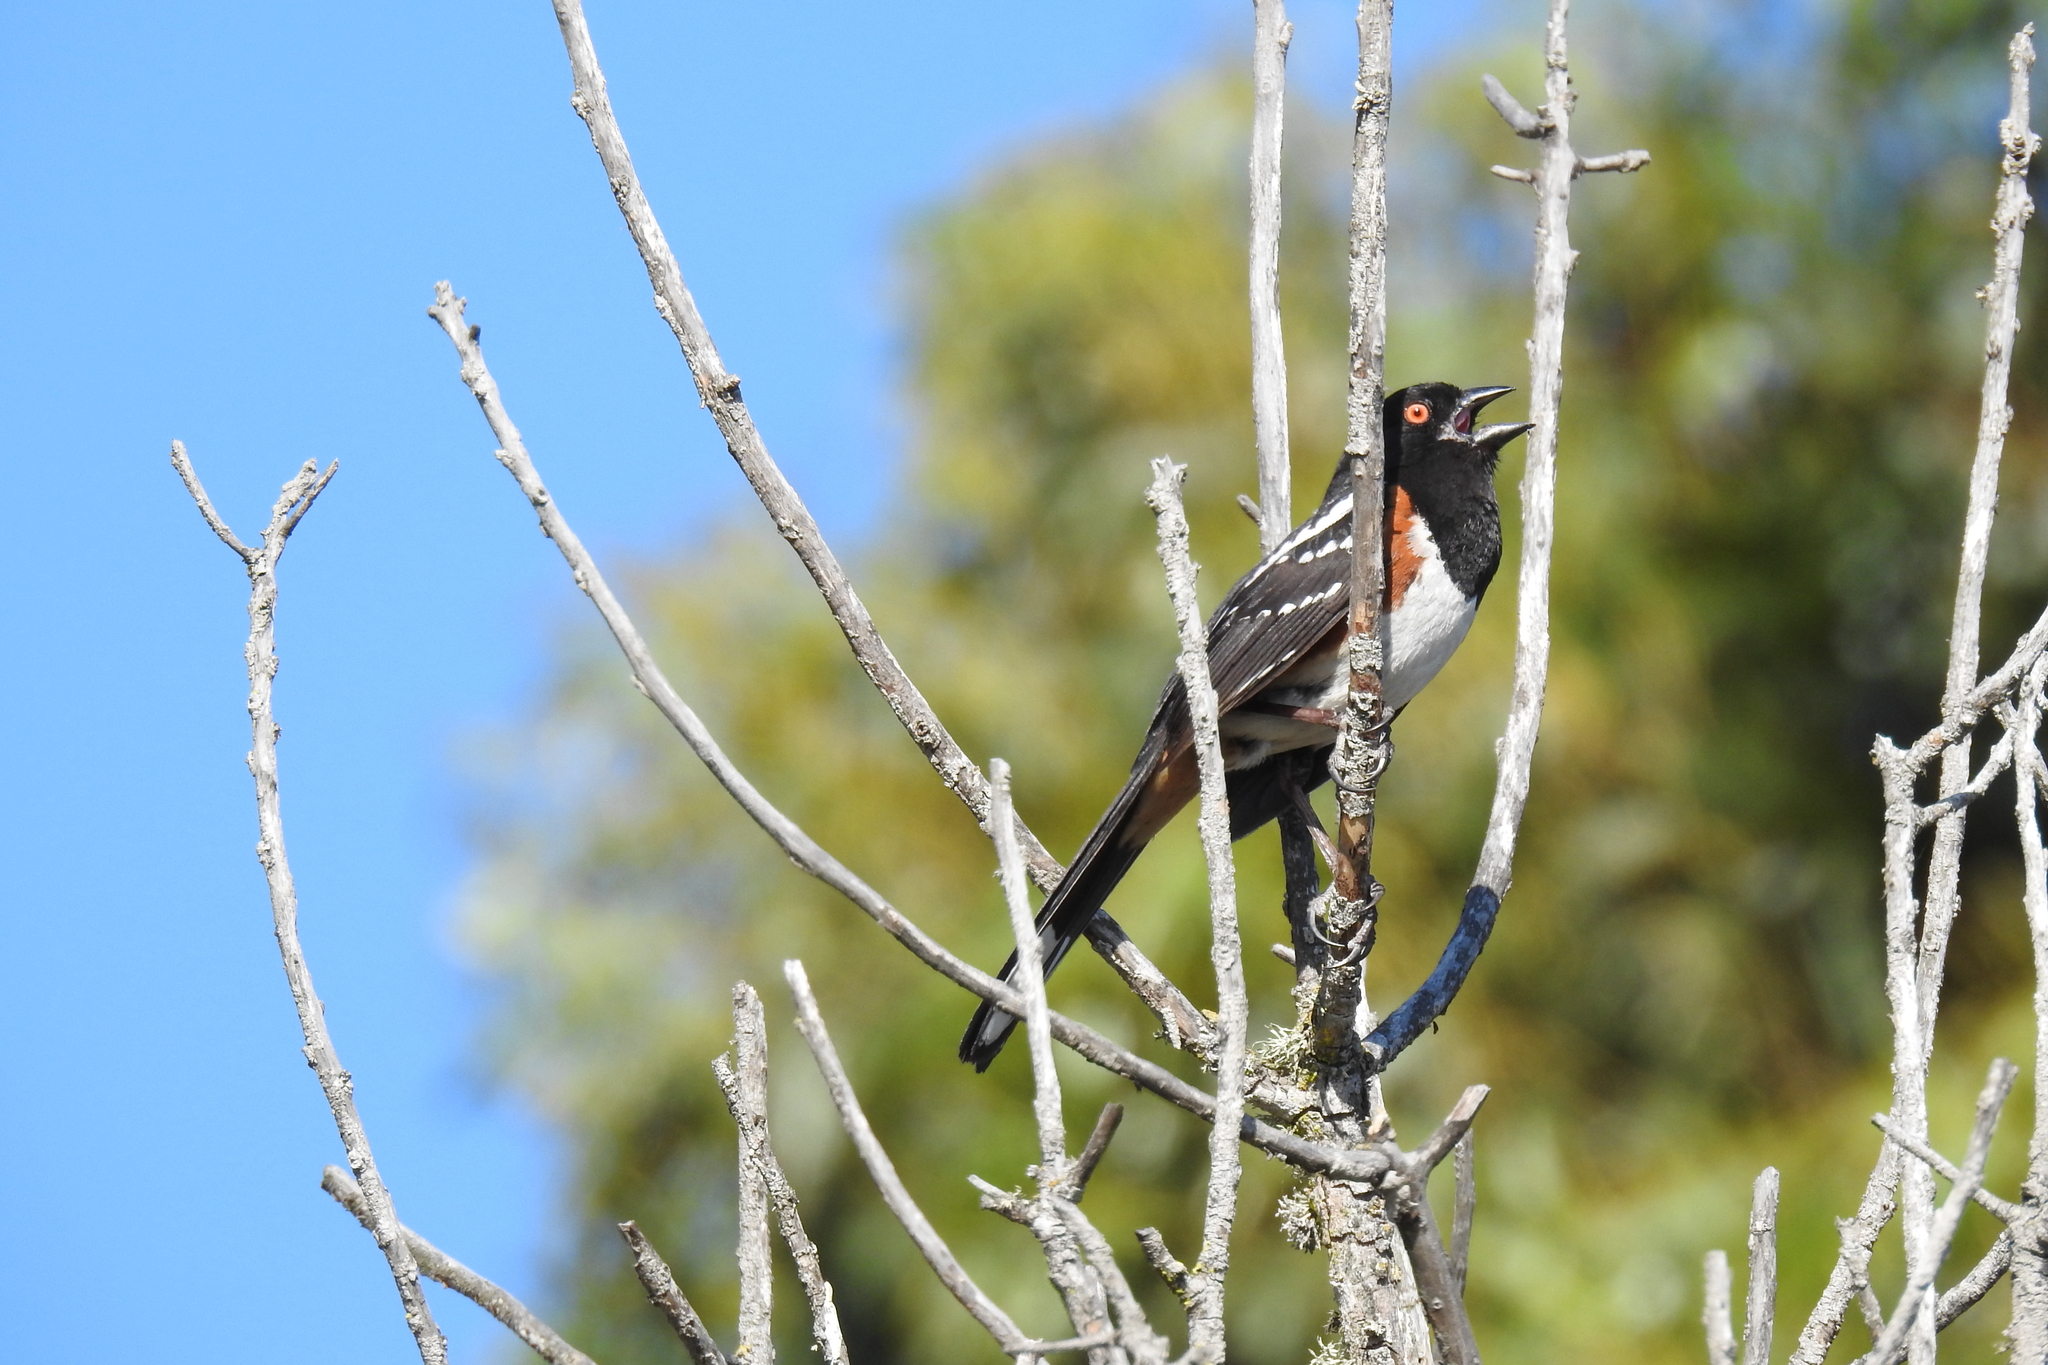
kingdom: Animalia
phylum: Chordata
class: Aves
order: Passeriformes
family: Passerellidae
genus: Pipilo
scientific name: Pipilo maculatus
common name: Spotted towhee
